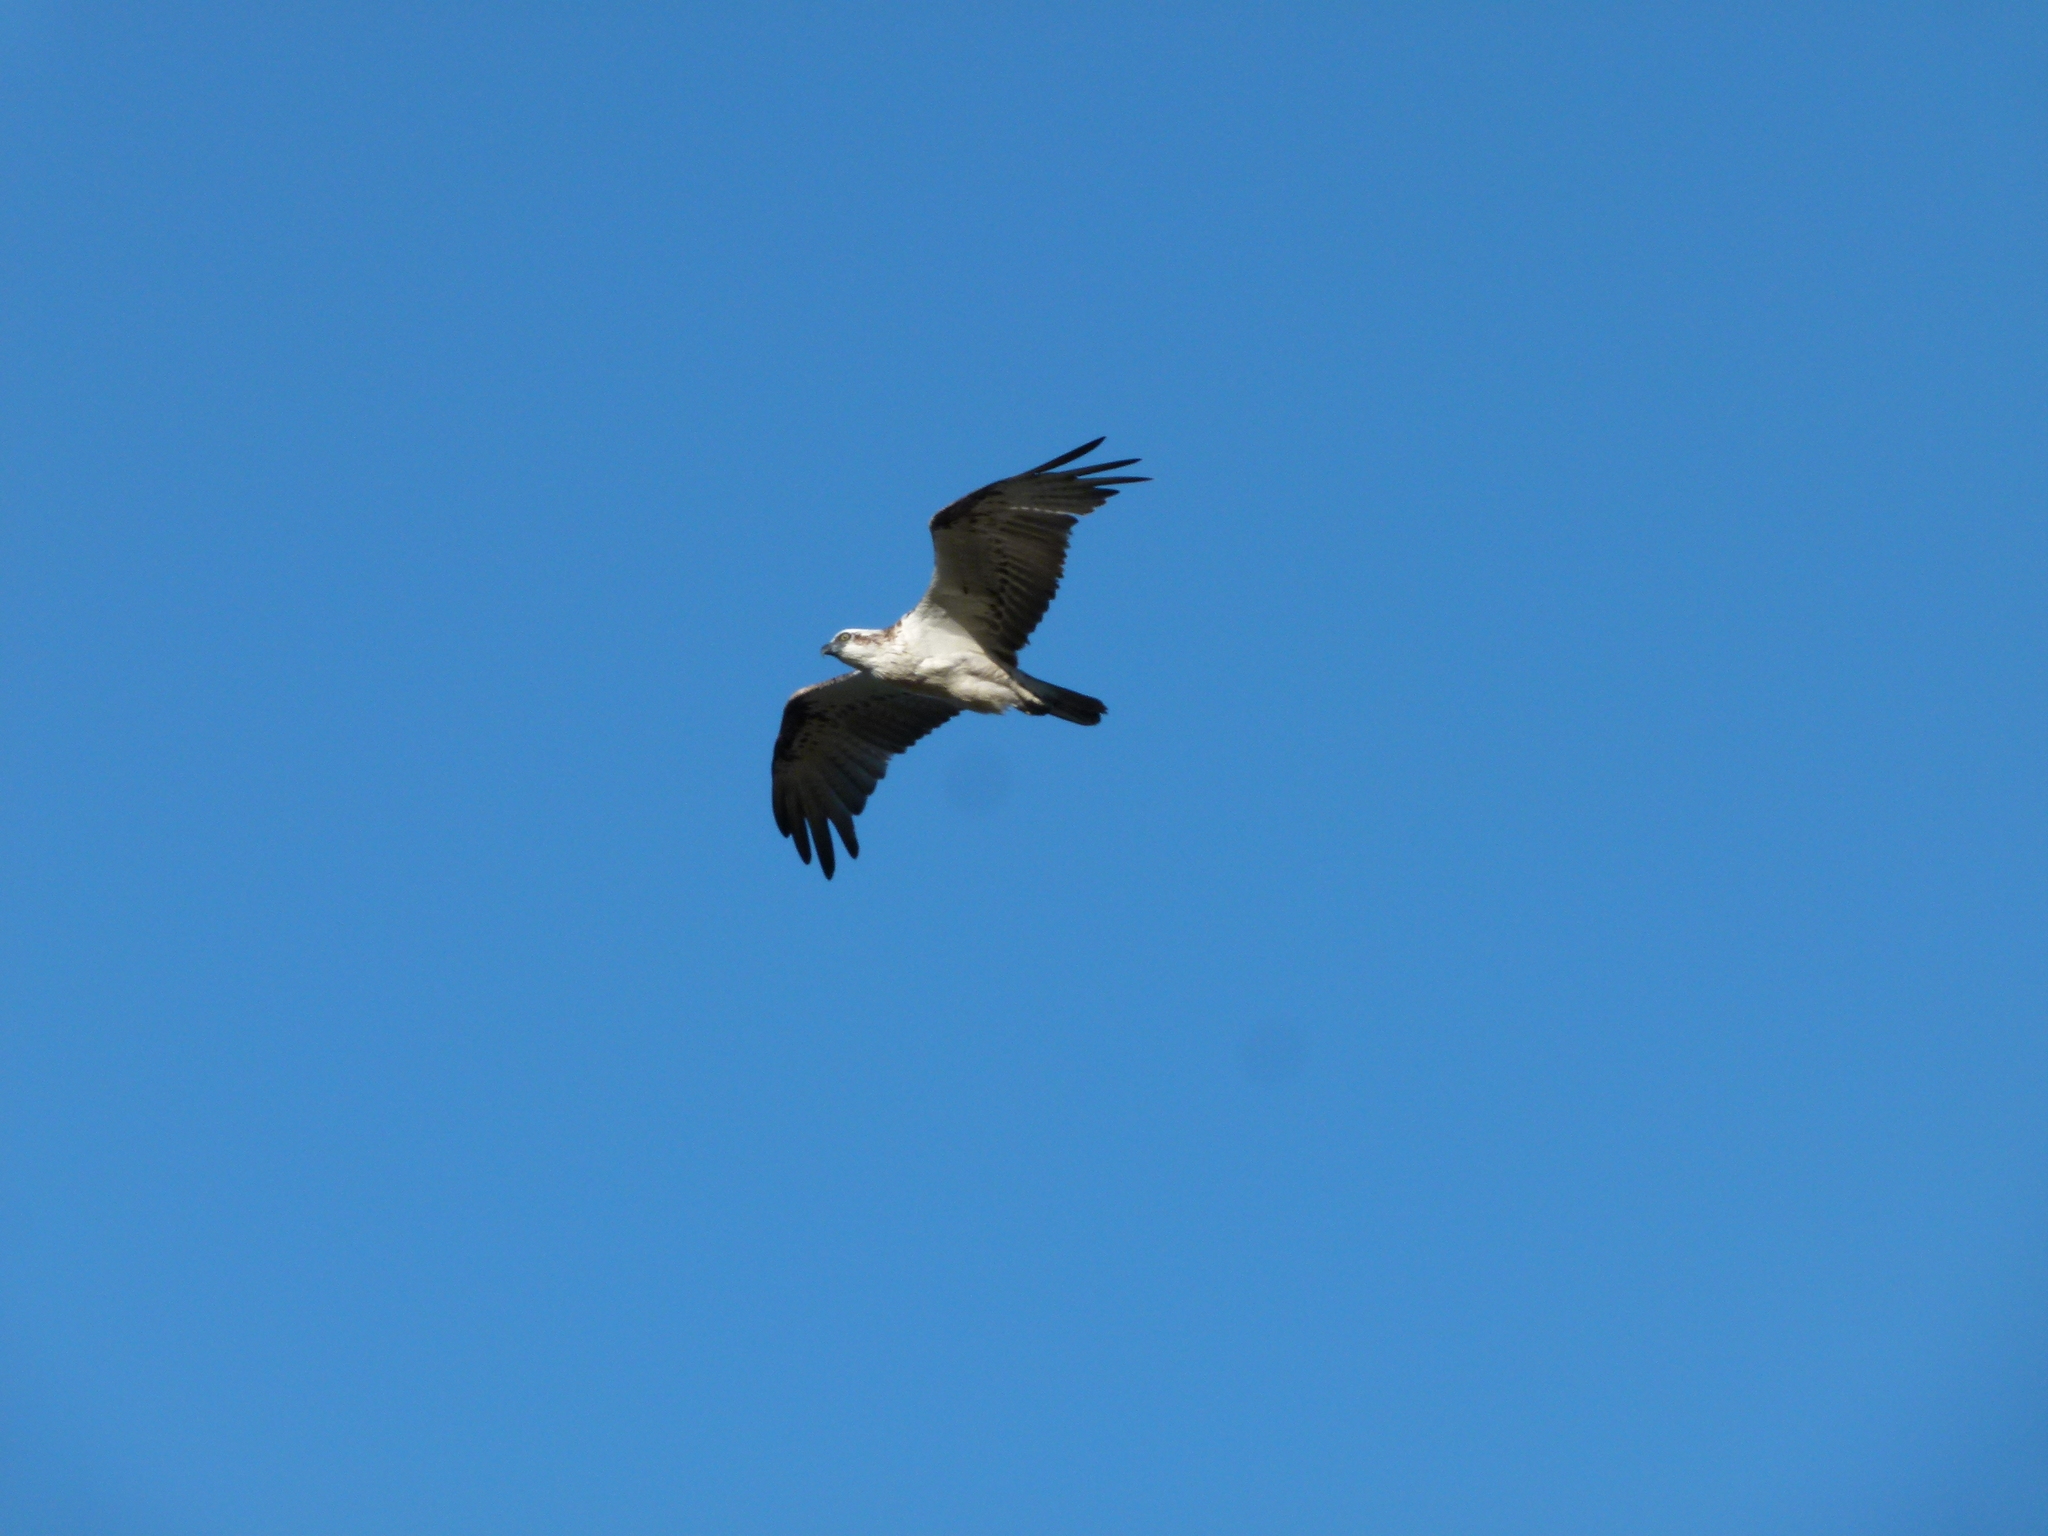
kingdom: Animalia
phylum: Chordata
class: Aves
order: Accipitriformes
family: Pandionidae
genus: Pandion
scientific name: Pandion cristatus
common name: Eastern osprey
